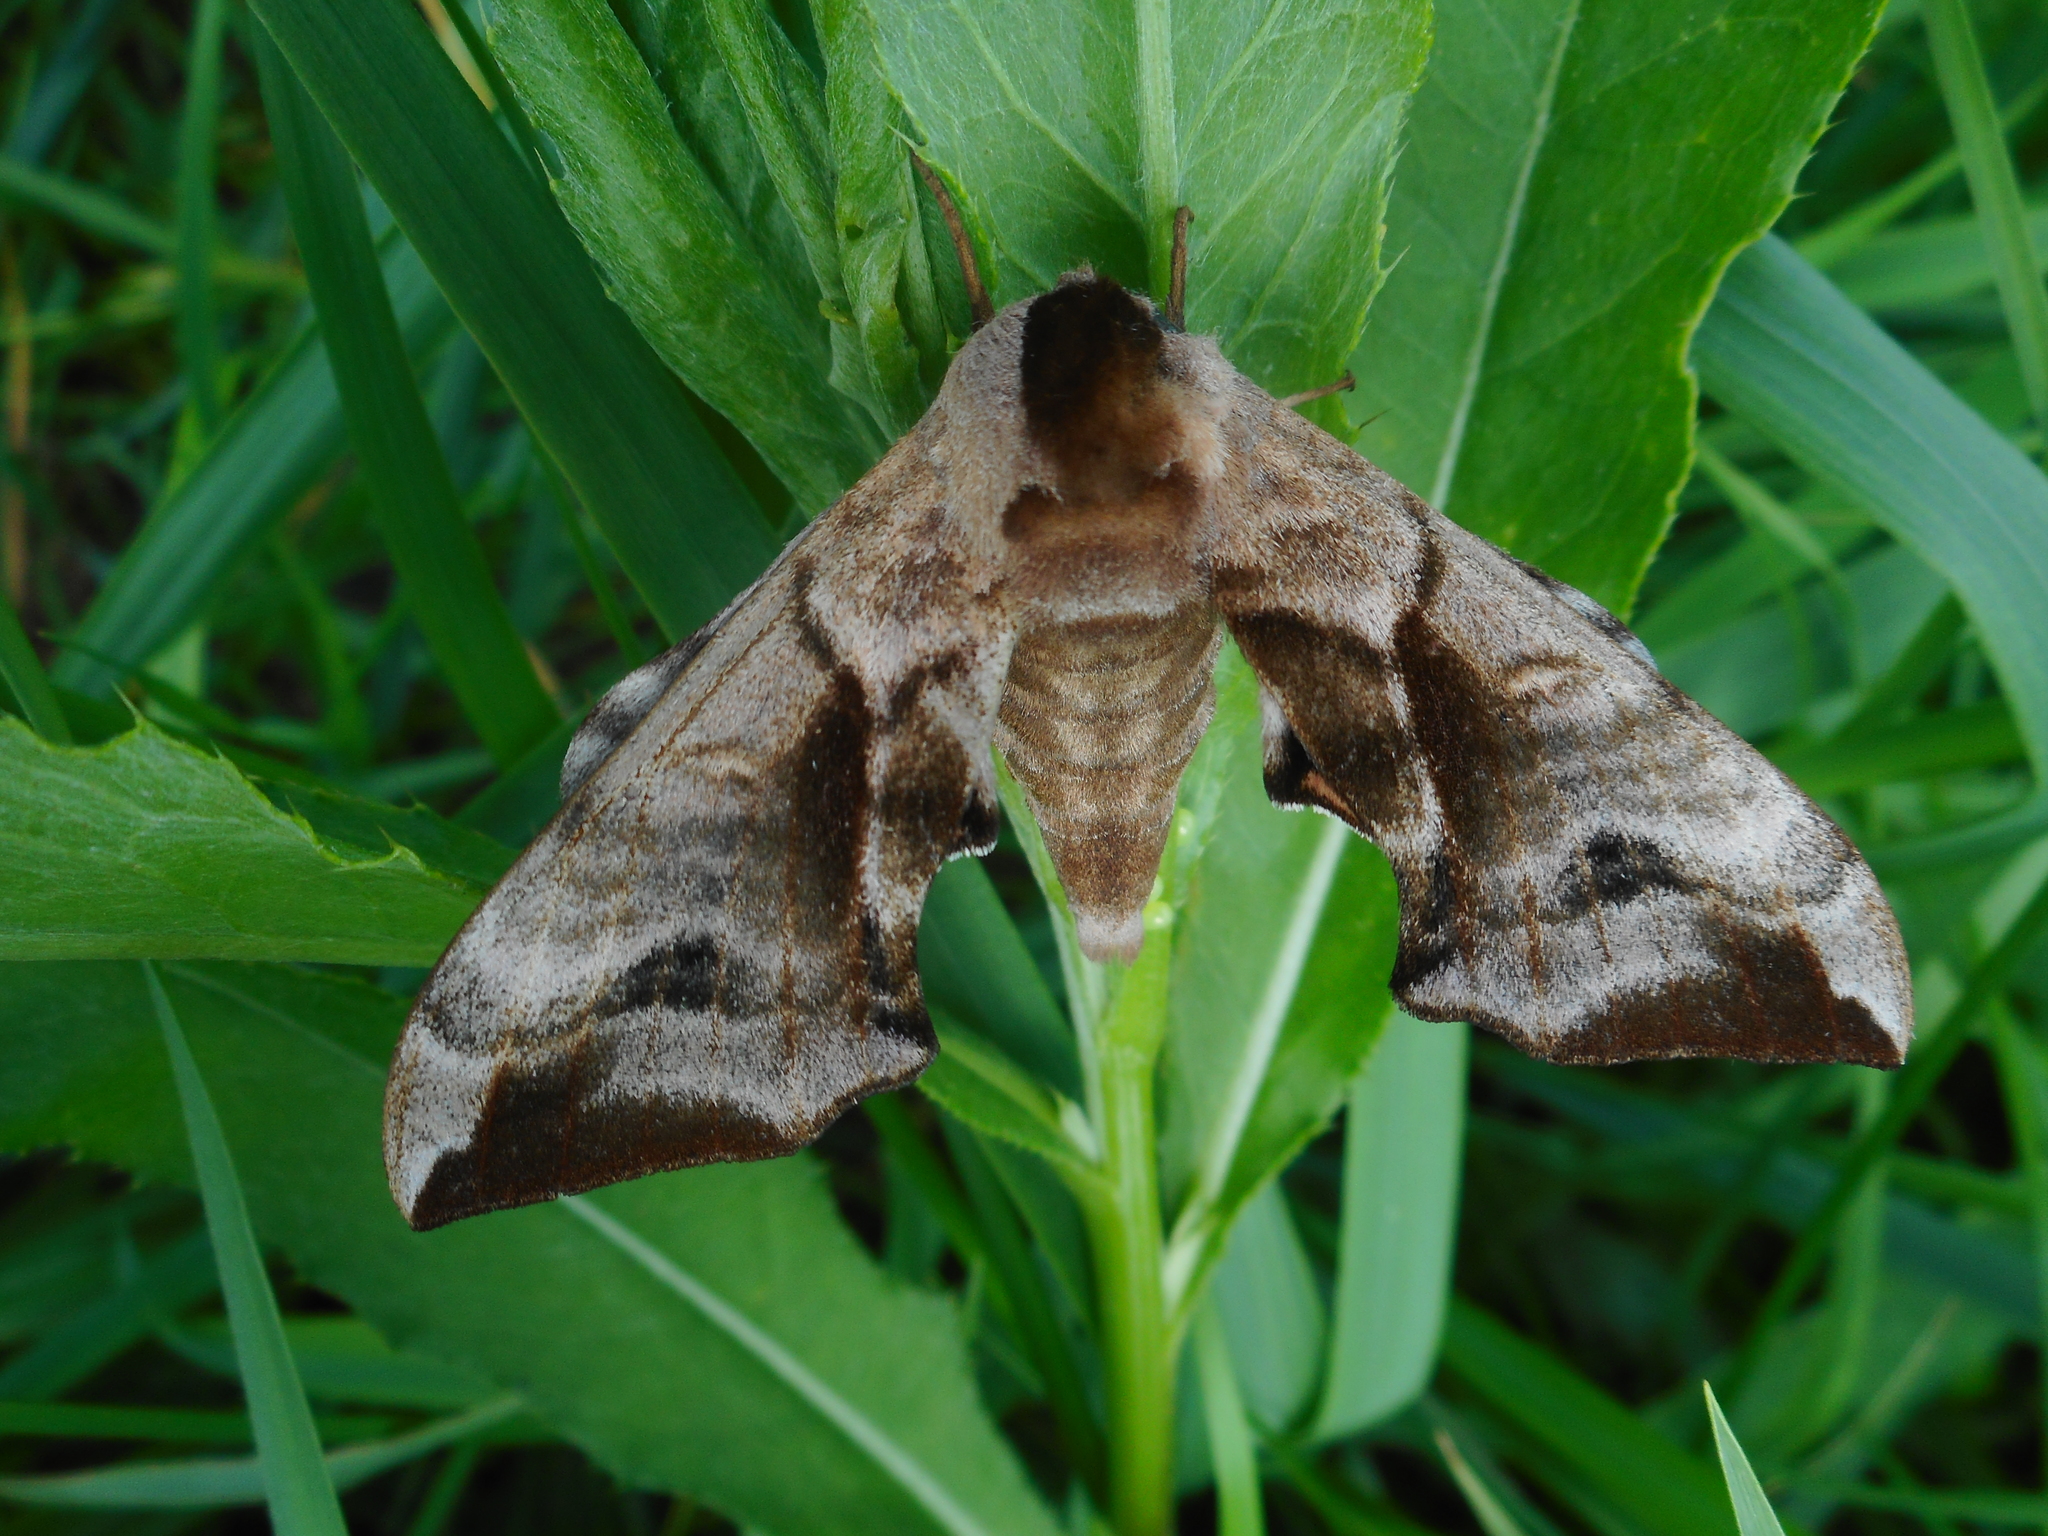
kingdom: Animalia
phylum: Arthropoda
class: Insecta
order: Lepidoptera
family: Sphingidae
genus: Smerinthus
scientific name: Smerinthus ocellata
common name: Eyed hawk-moth
